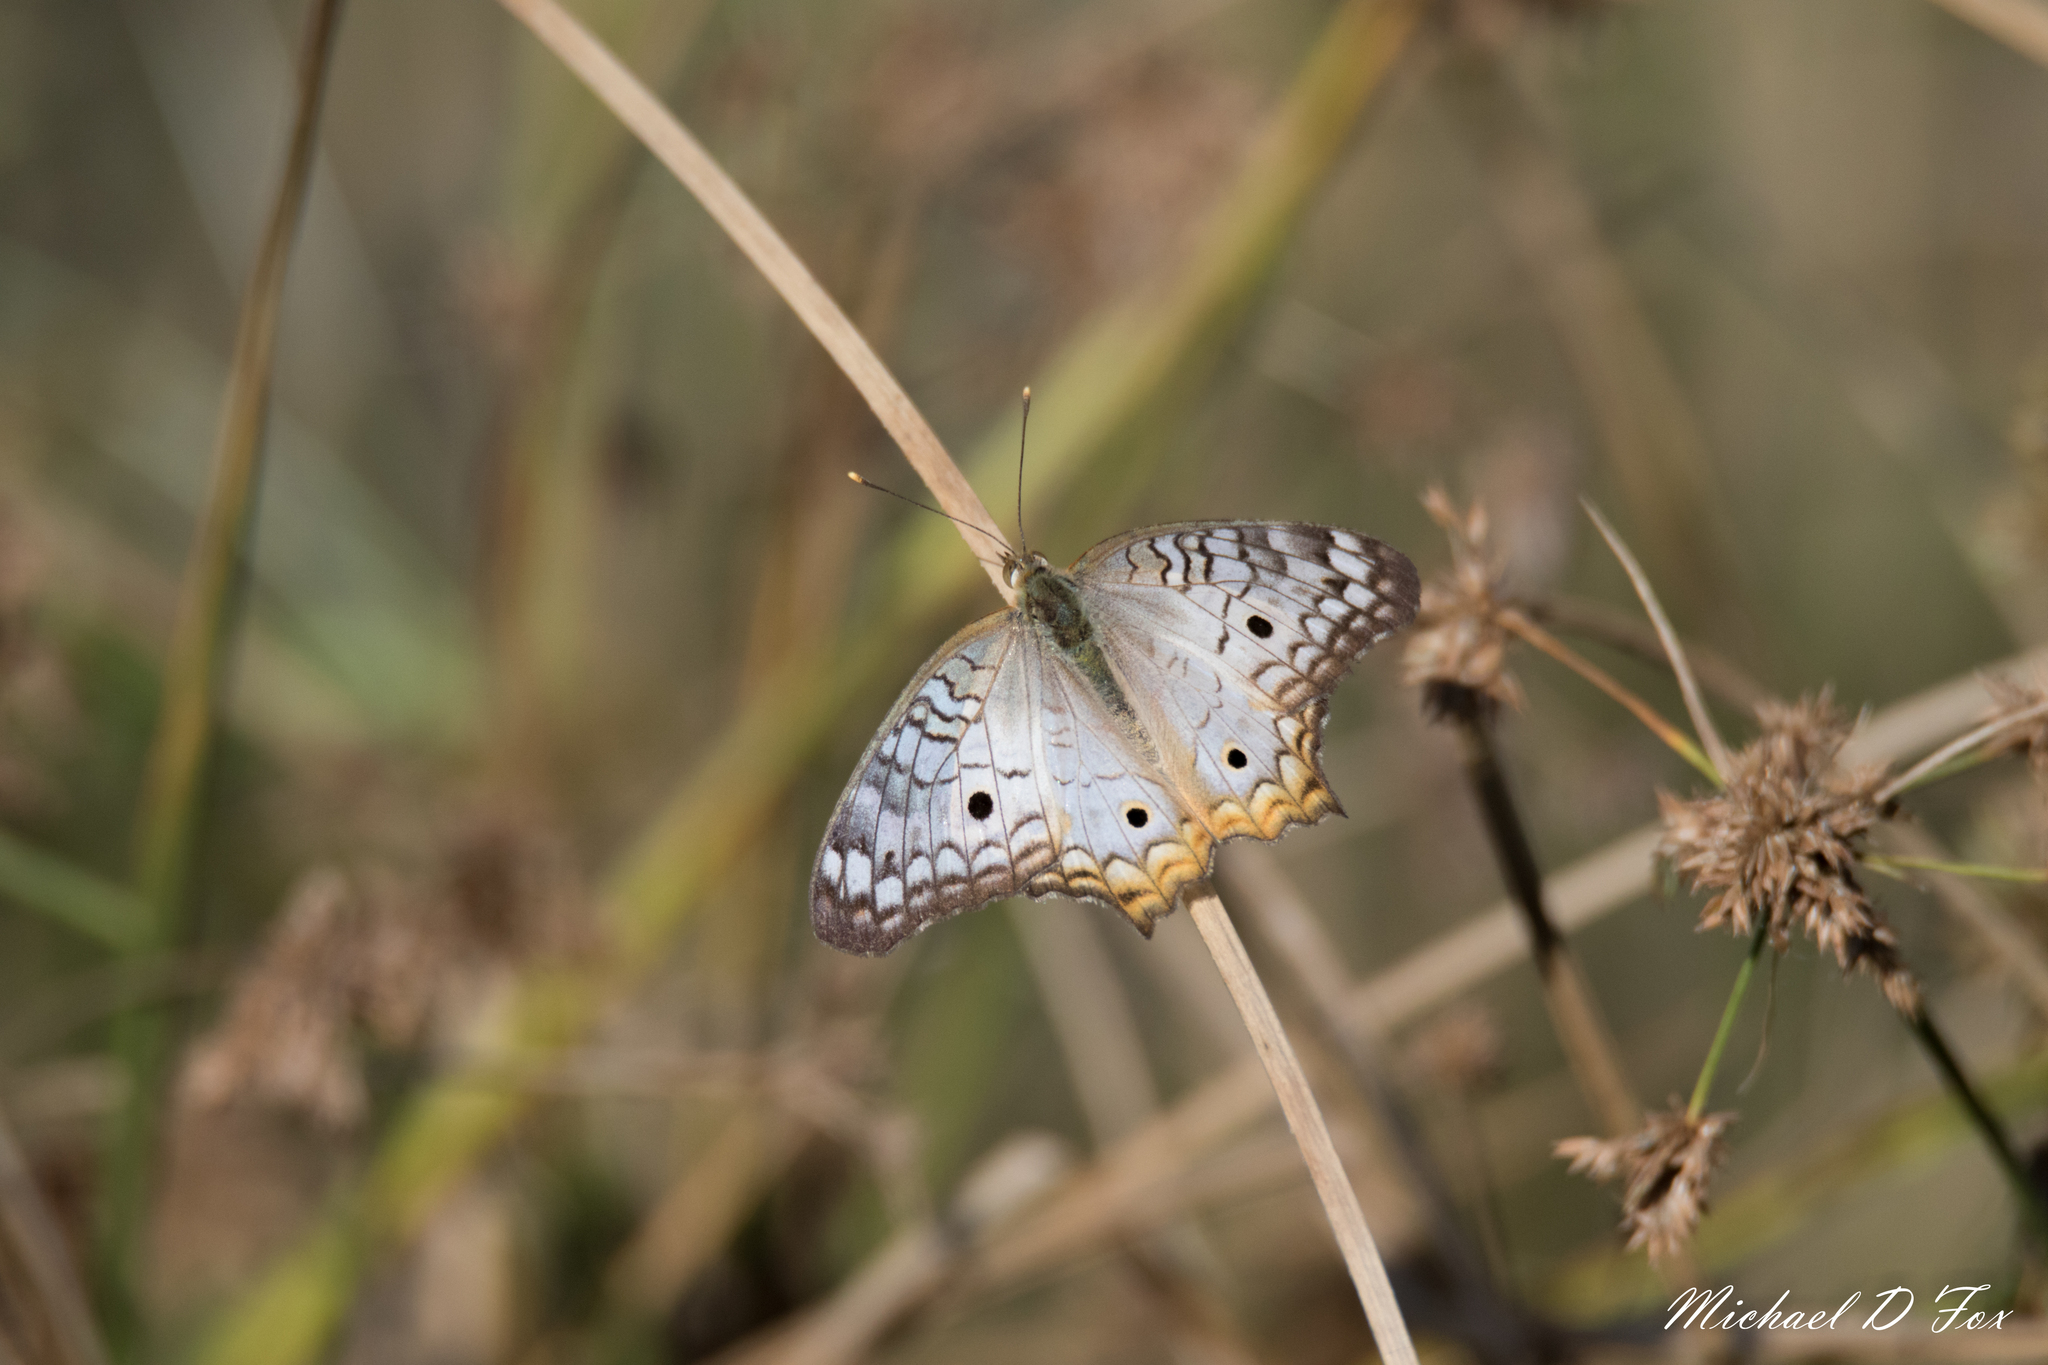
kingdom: Animalia
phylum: Arthropoda
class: Insecta
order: Lepidoptera
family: Nymphalidae
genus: Anartia
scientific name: Anartia jatrophae
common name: White peacock
